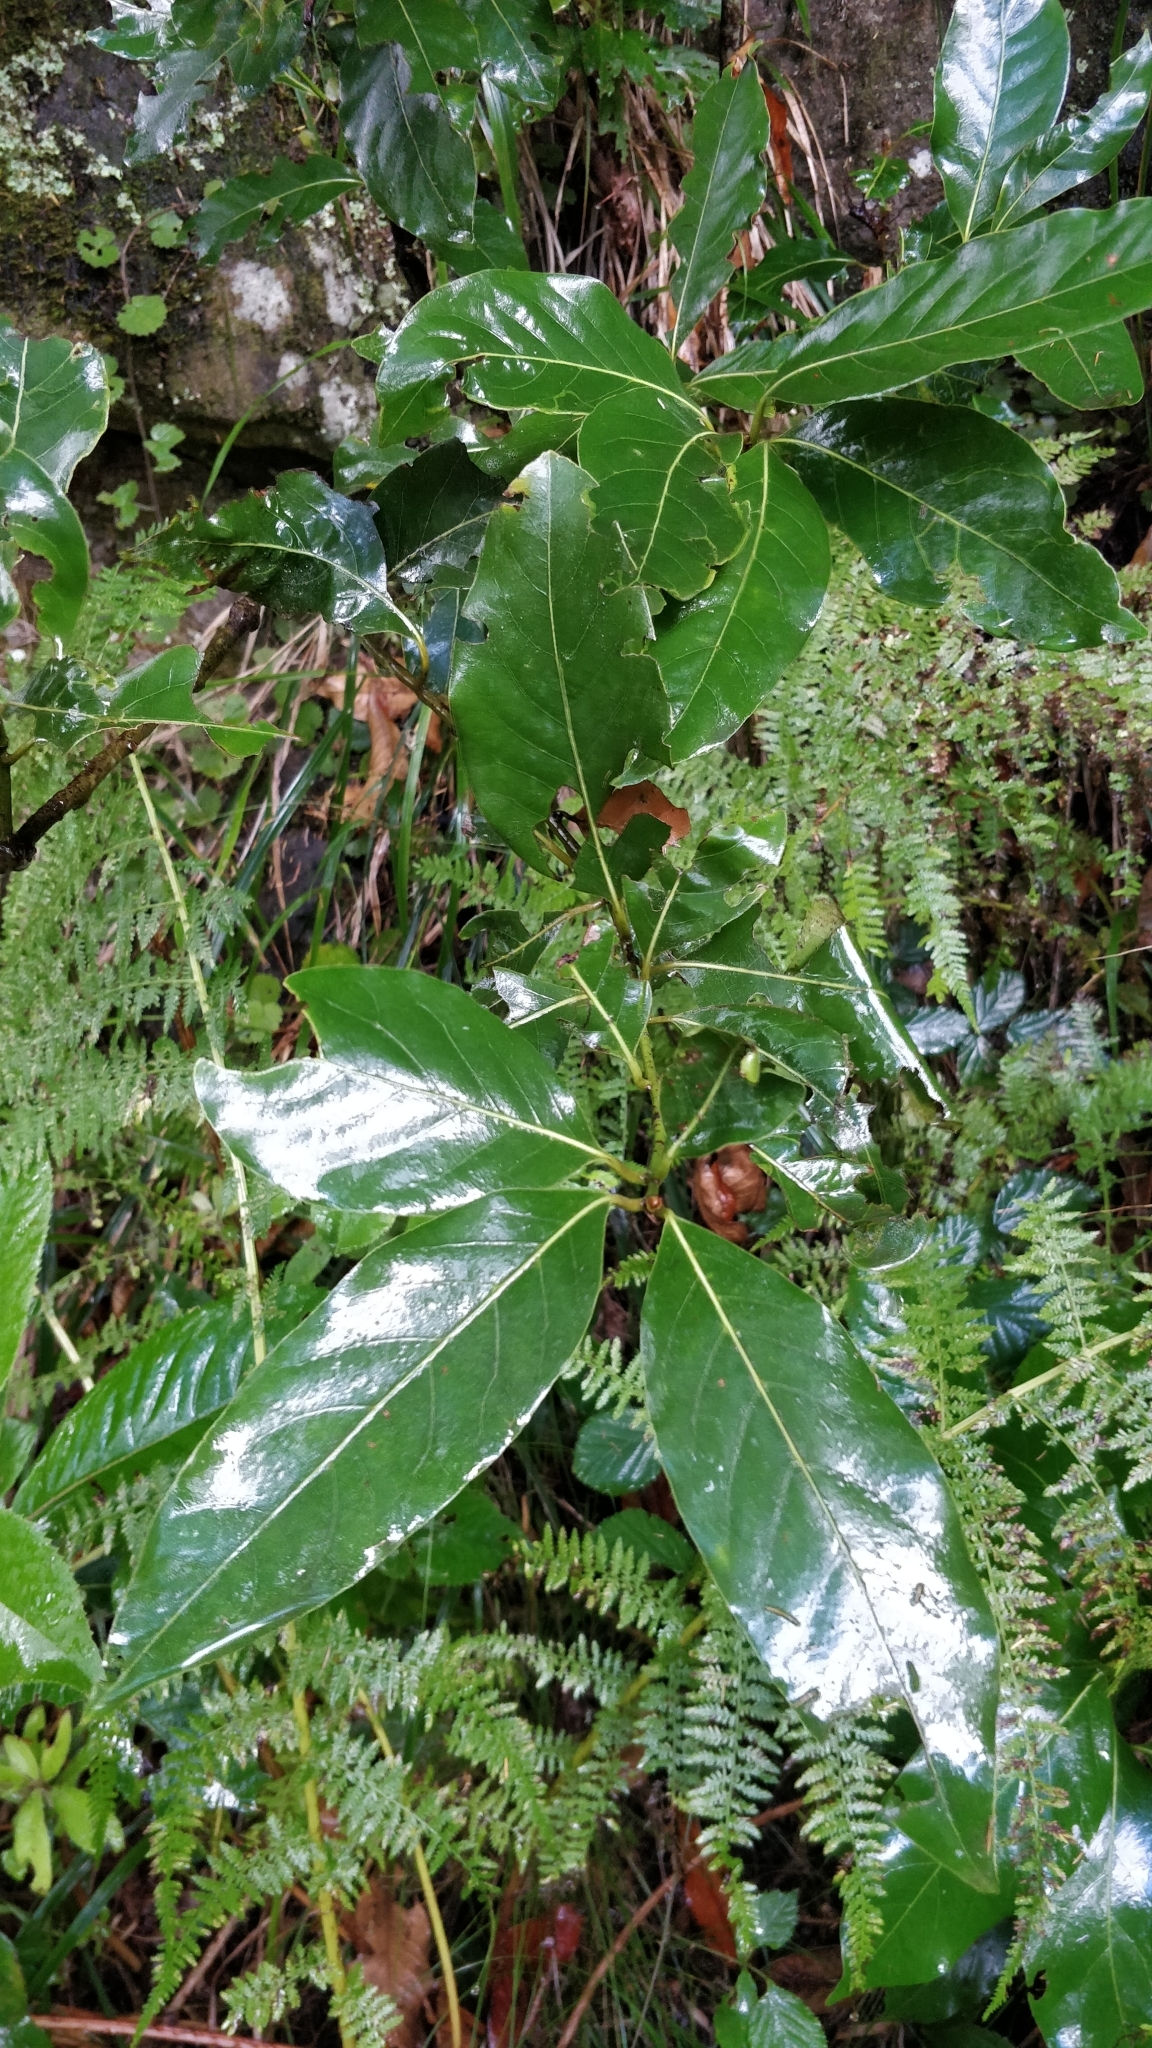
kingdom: Plantae
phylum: Tracheophyta
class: Magnoliopsida
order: Laurales
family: Lauraceae
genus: Laurus
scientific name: Laurus novocanariensis
